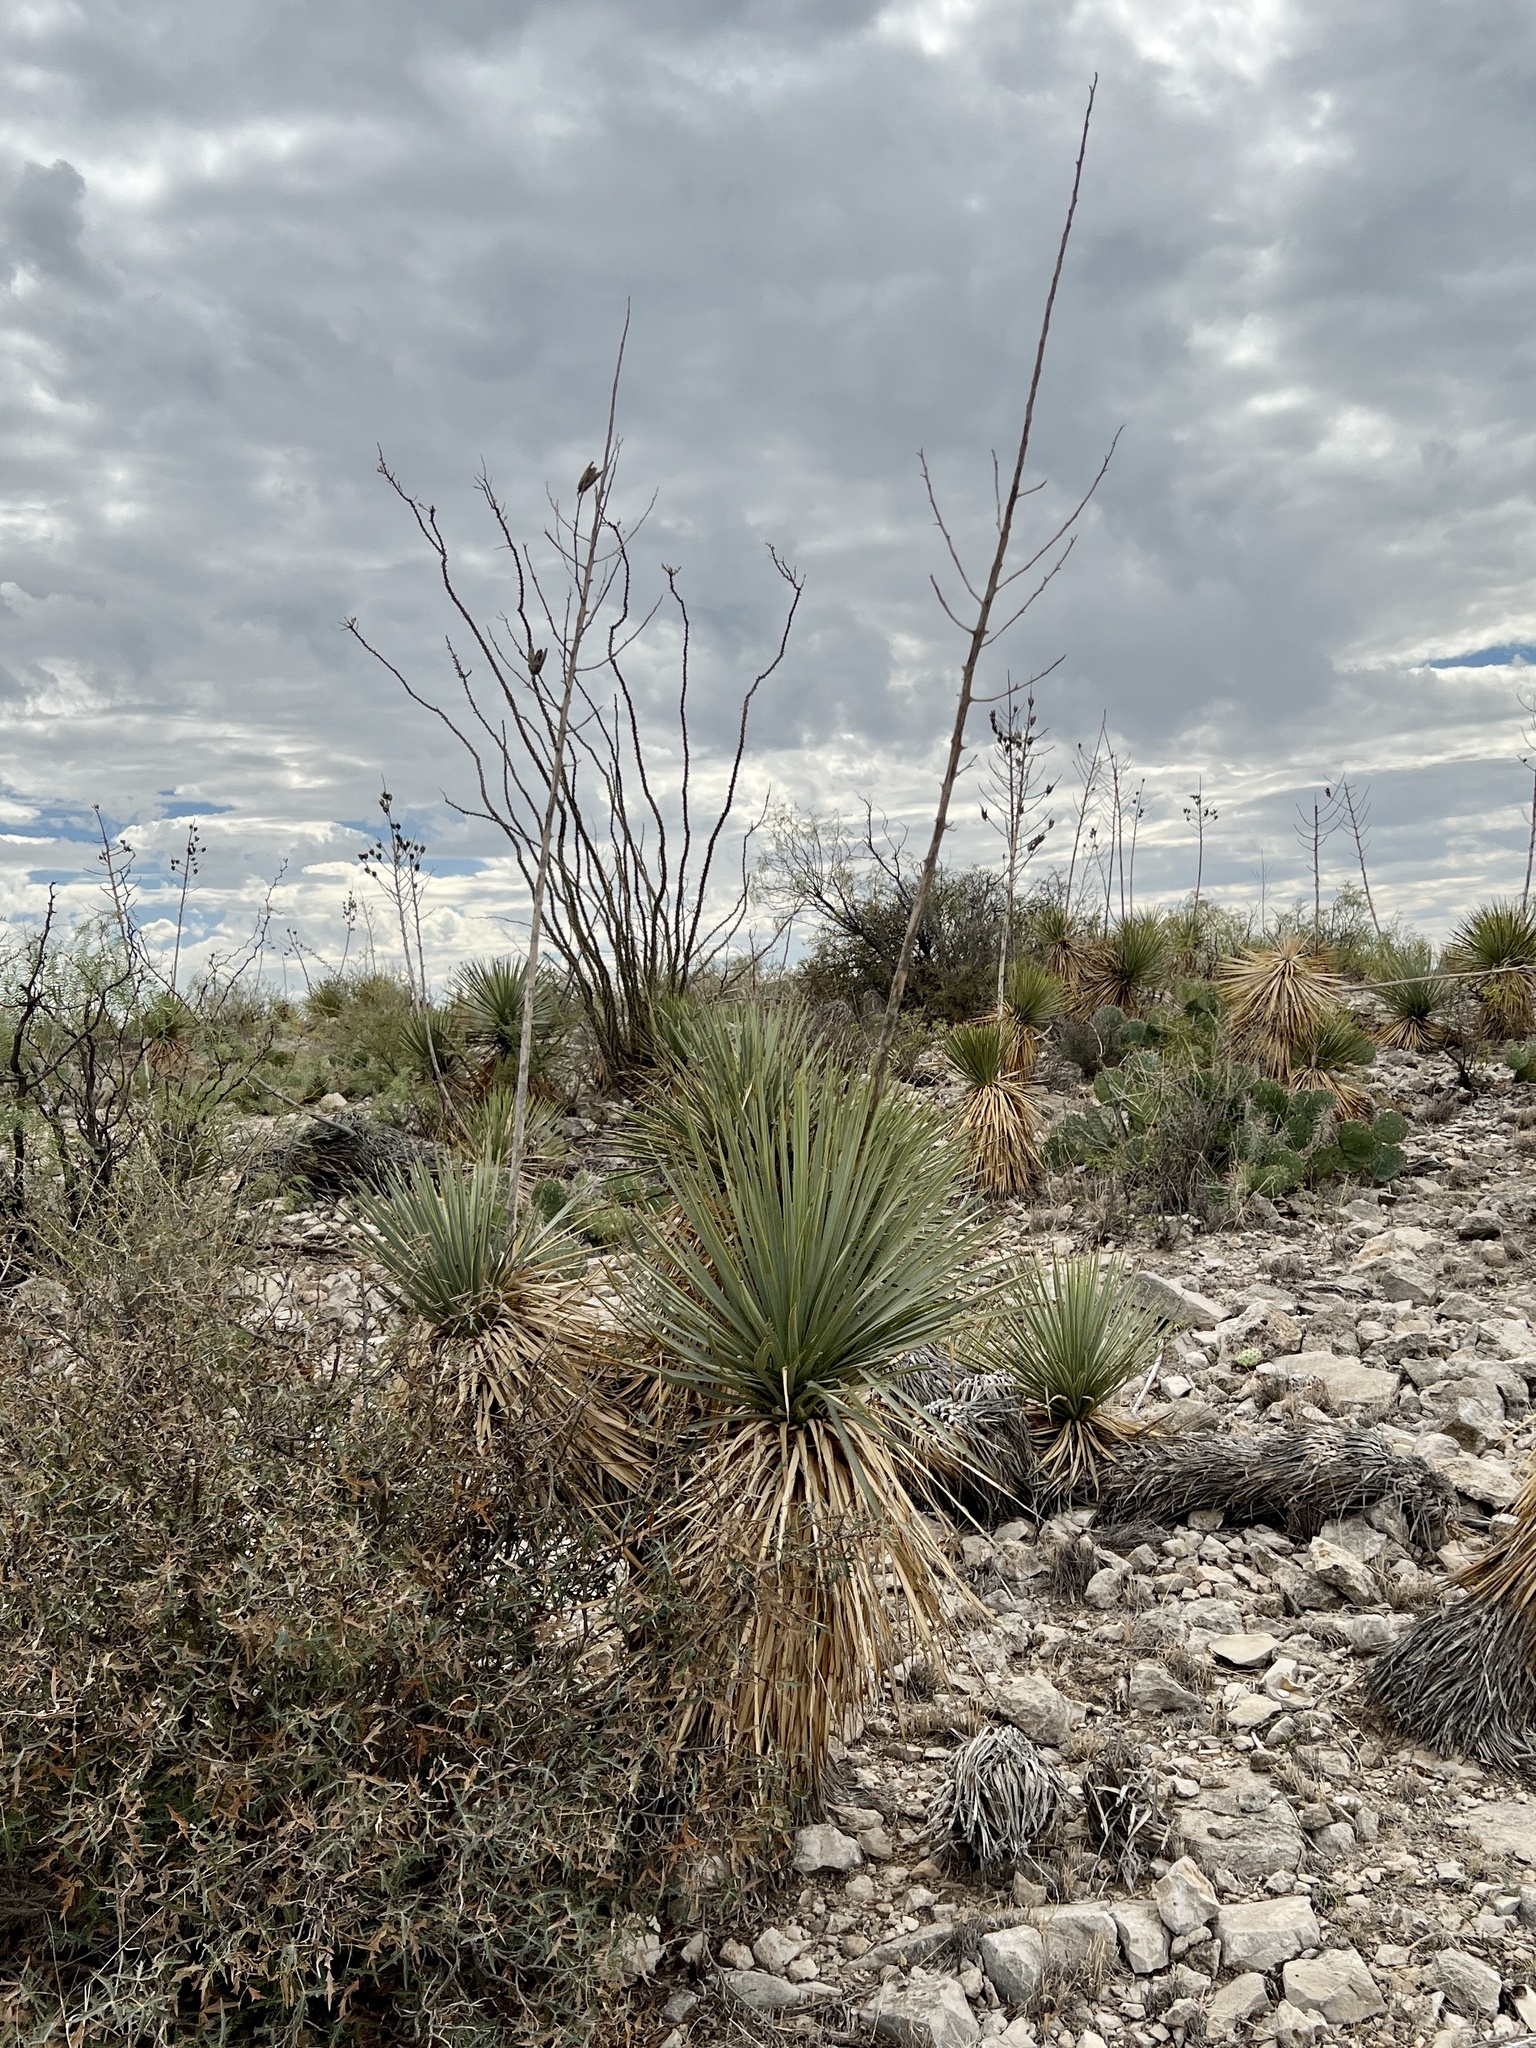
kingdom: Plantae
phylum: Tracheophyta
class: Liliopsida
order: Asparagales
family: Asparagaceae
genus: Yucca
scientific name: Yucca thompsoniana
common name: Trans-pecos yucca
